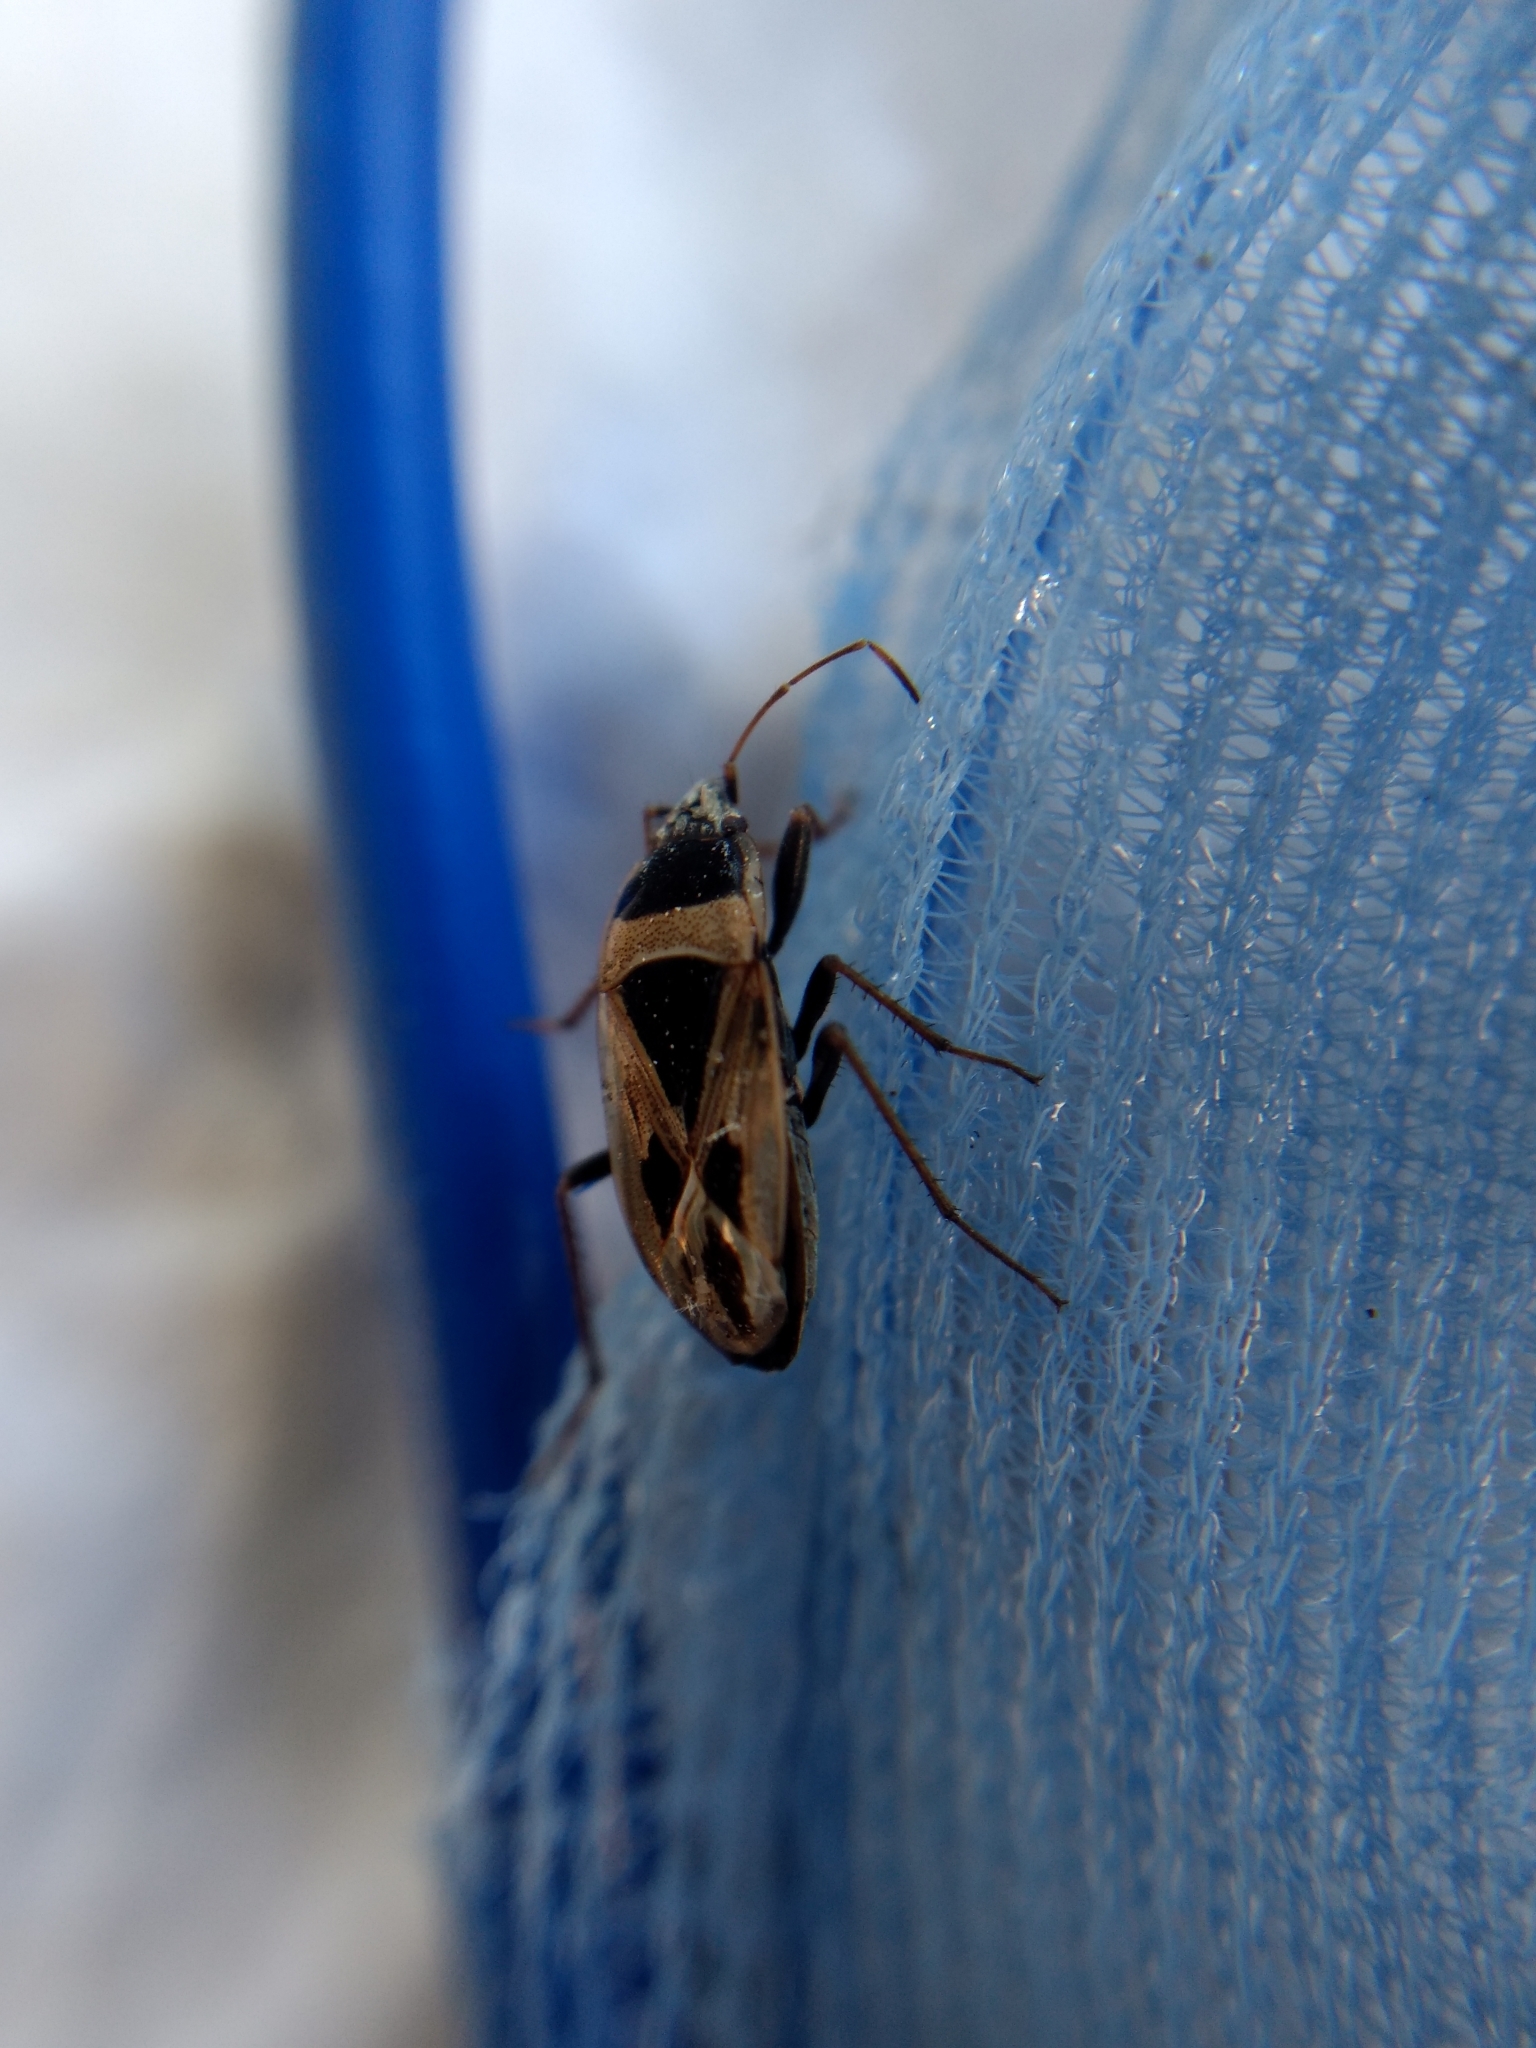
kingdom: Animalia
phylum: Arthropoda
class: Insecta
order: Hemiptera
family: Rhyparochromidae
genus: Xanthochilus
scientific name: Xanthochilus saturnius
